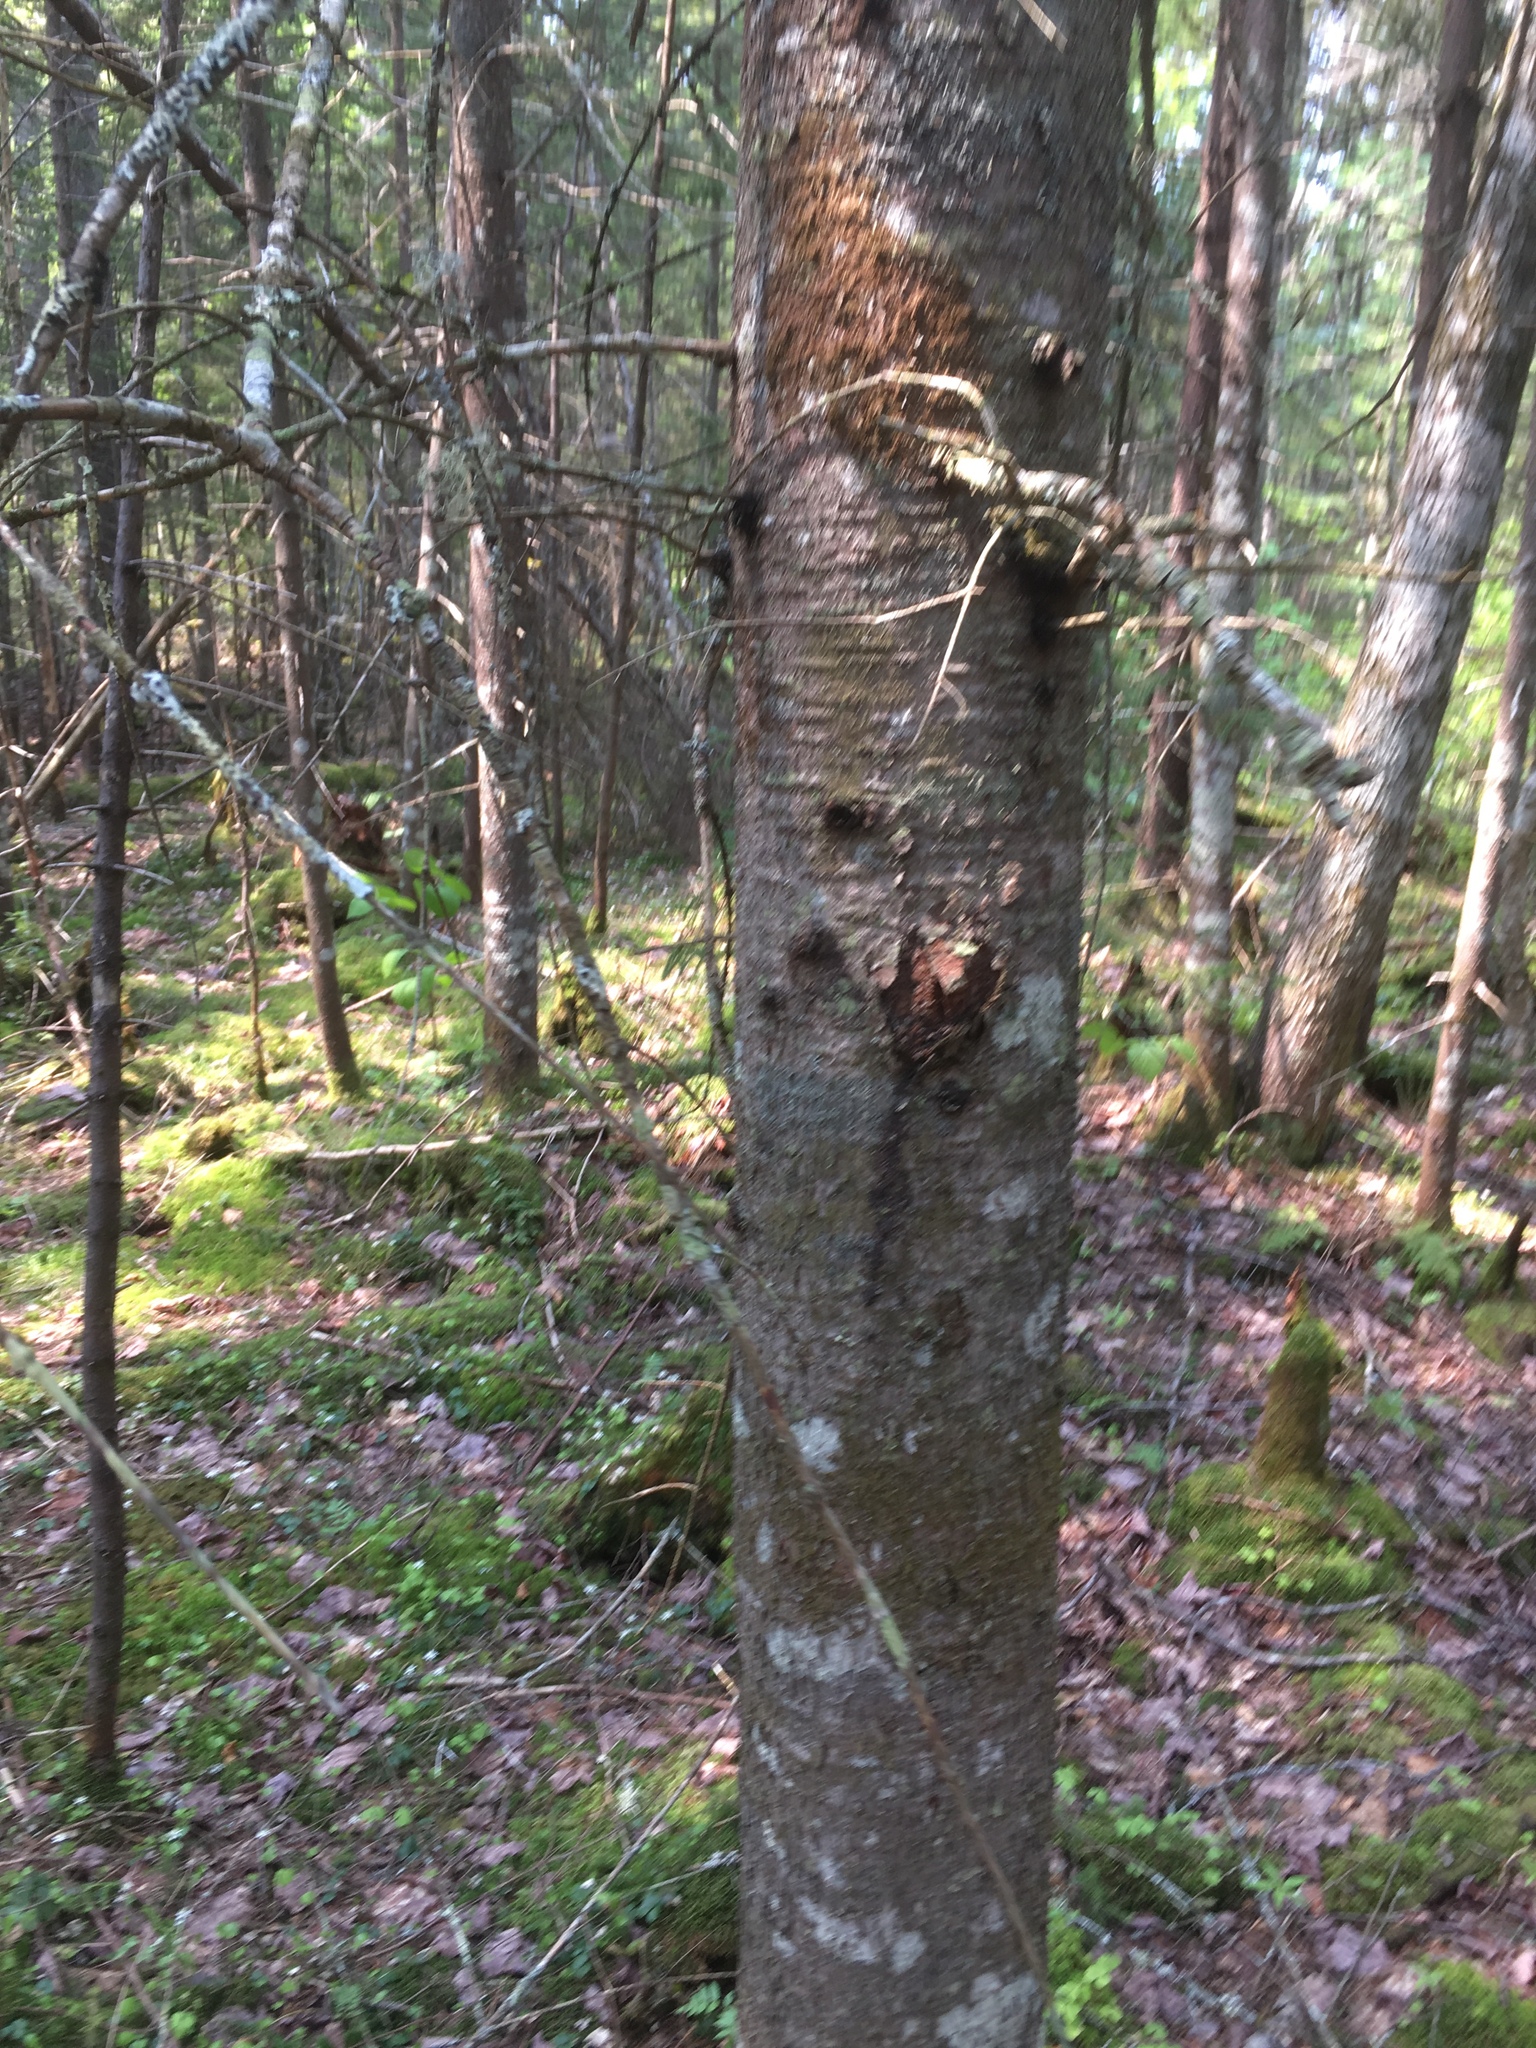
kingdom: Plantae
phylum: Tracheophyta
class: Pinopsida
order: Pinales
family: Pinaceae
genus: Abies
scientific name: Abies balsamea
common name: Balsam fir
